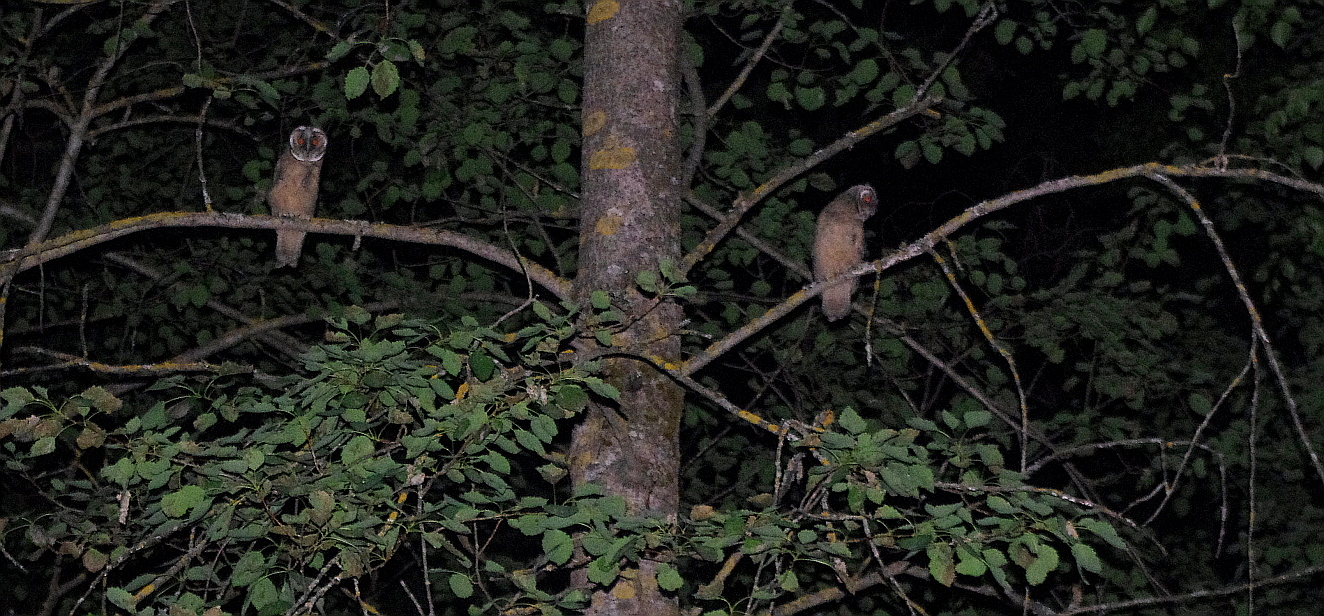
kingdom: Animalia
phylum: Chordata
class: Aves
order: Strigiformes
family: Strigidae
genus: Asio
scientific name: Asio otus
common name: Long-eared owl
